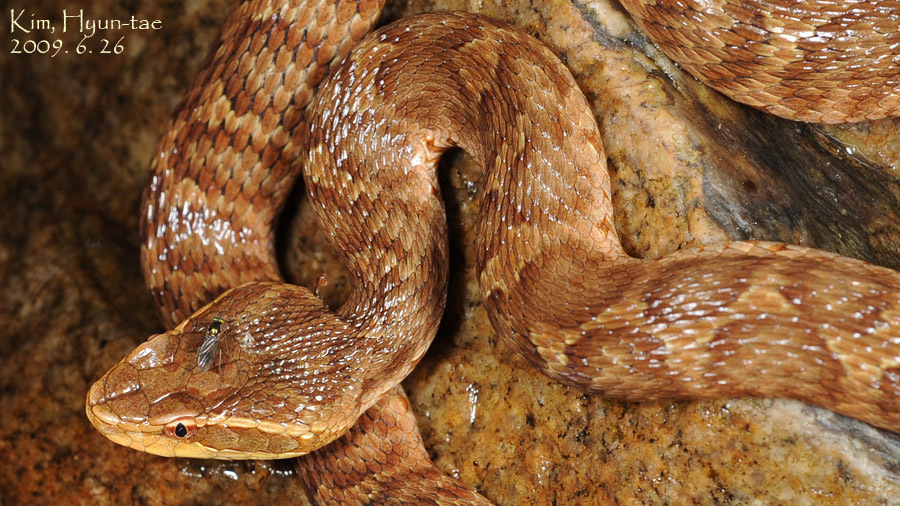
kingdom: Animalia
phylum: Chordata
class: Squamata
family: Viperidae
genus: Gloydius
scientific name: Gloydius ussuriensis
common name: Ussuri mamushi
